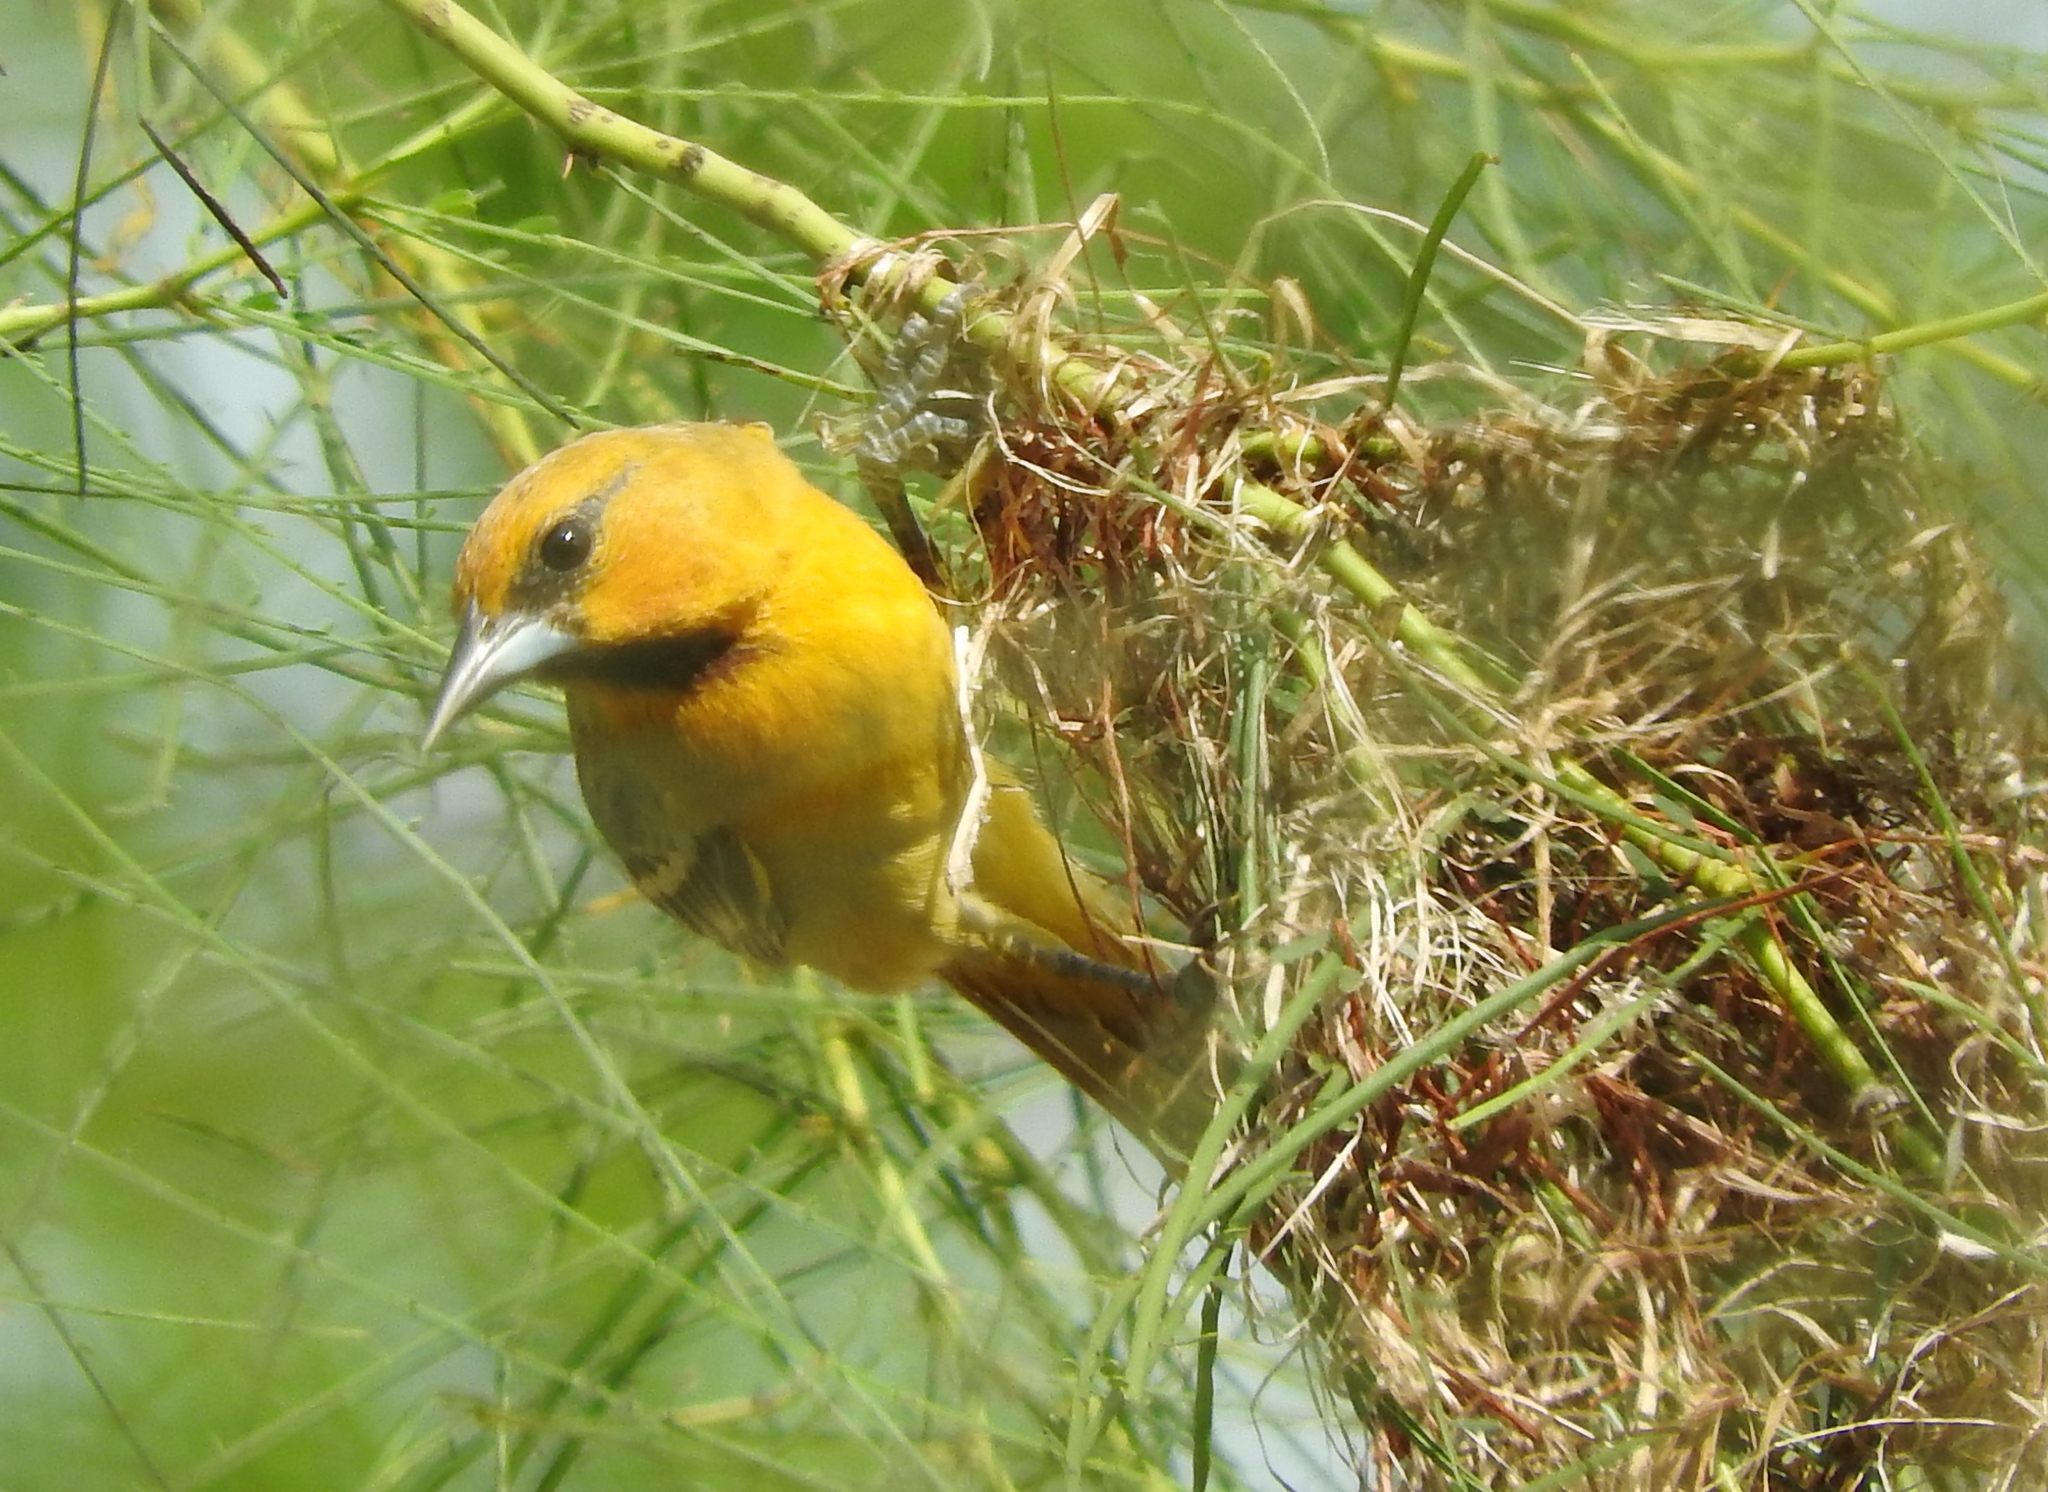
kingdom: Animalia
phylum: Chordata
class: Aves
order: Passeriformes
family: Icteridae
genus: Icterus
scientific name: Icterus pustulatus
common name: Streak-backed oriole
